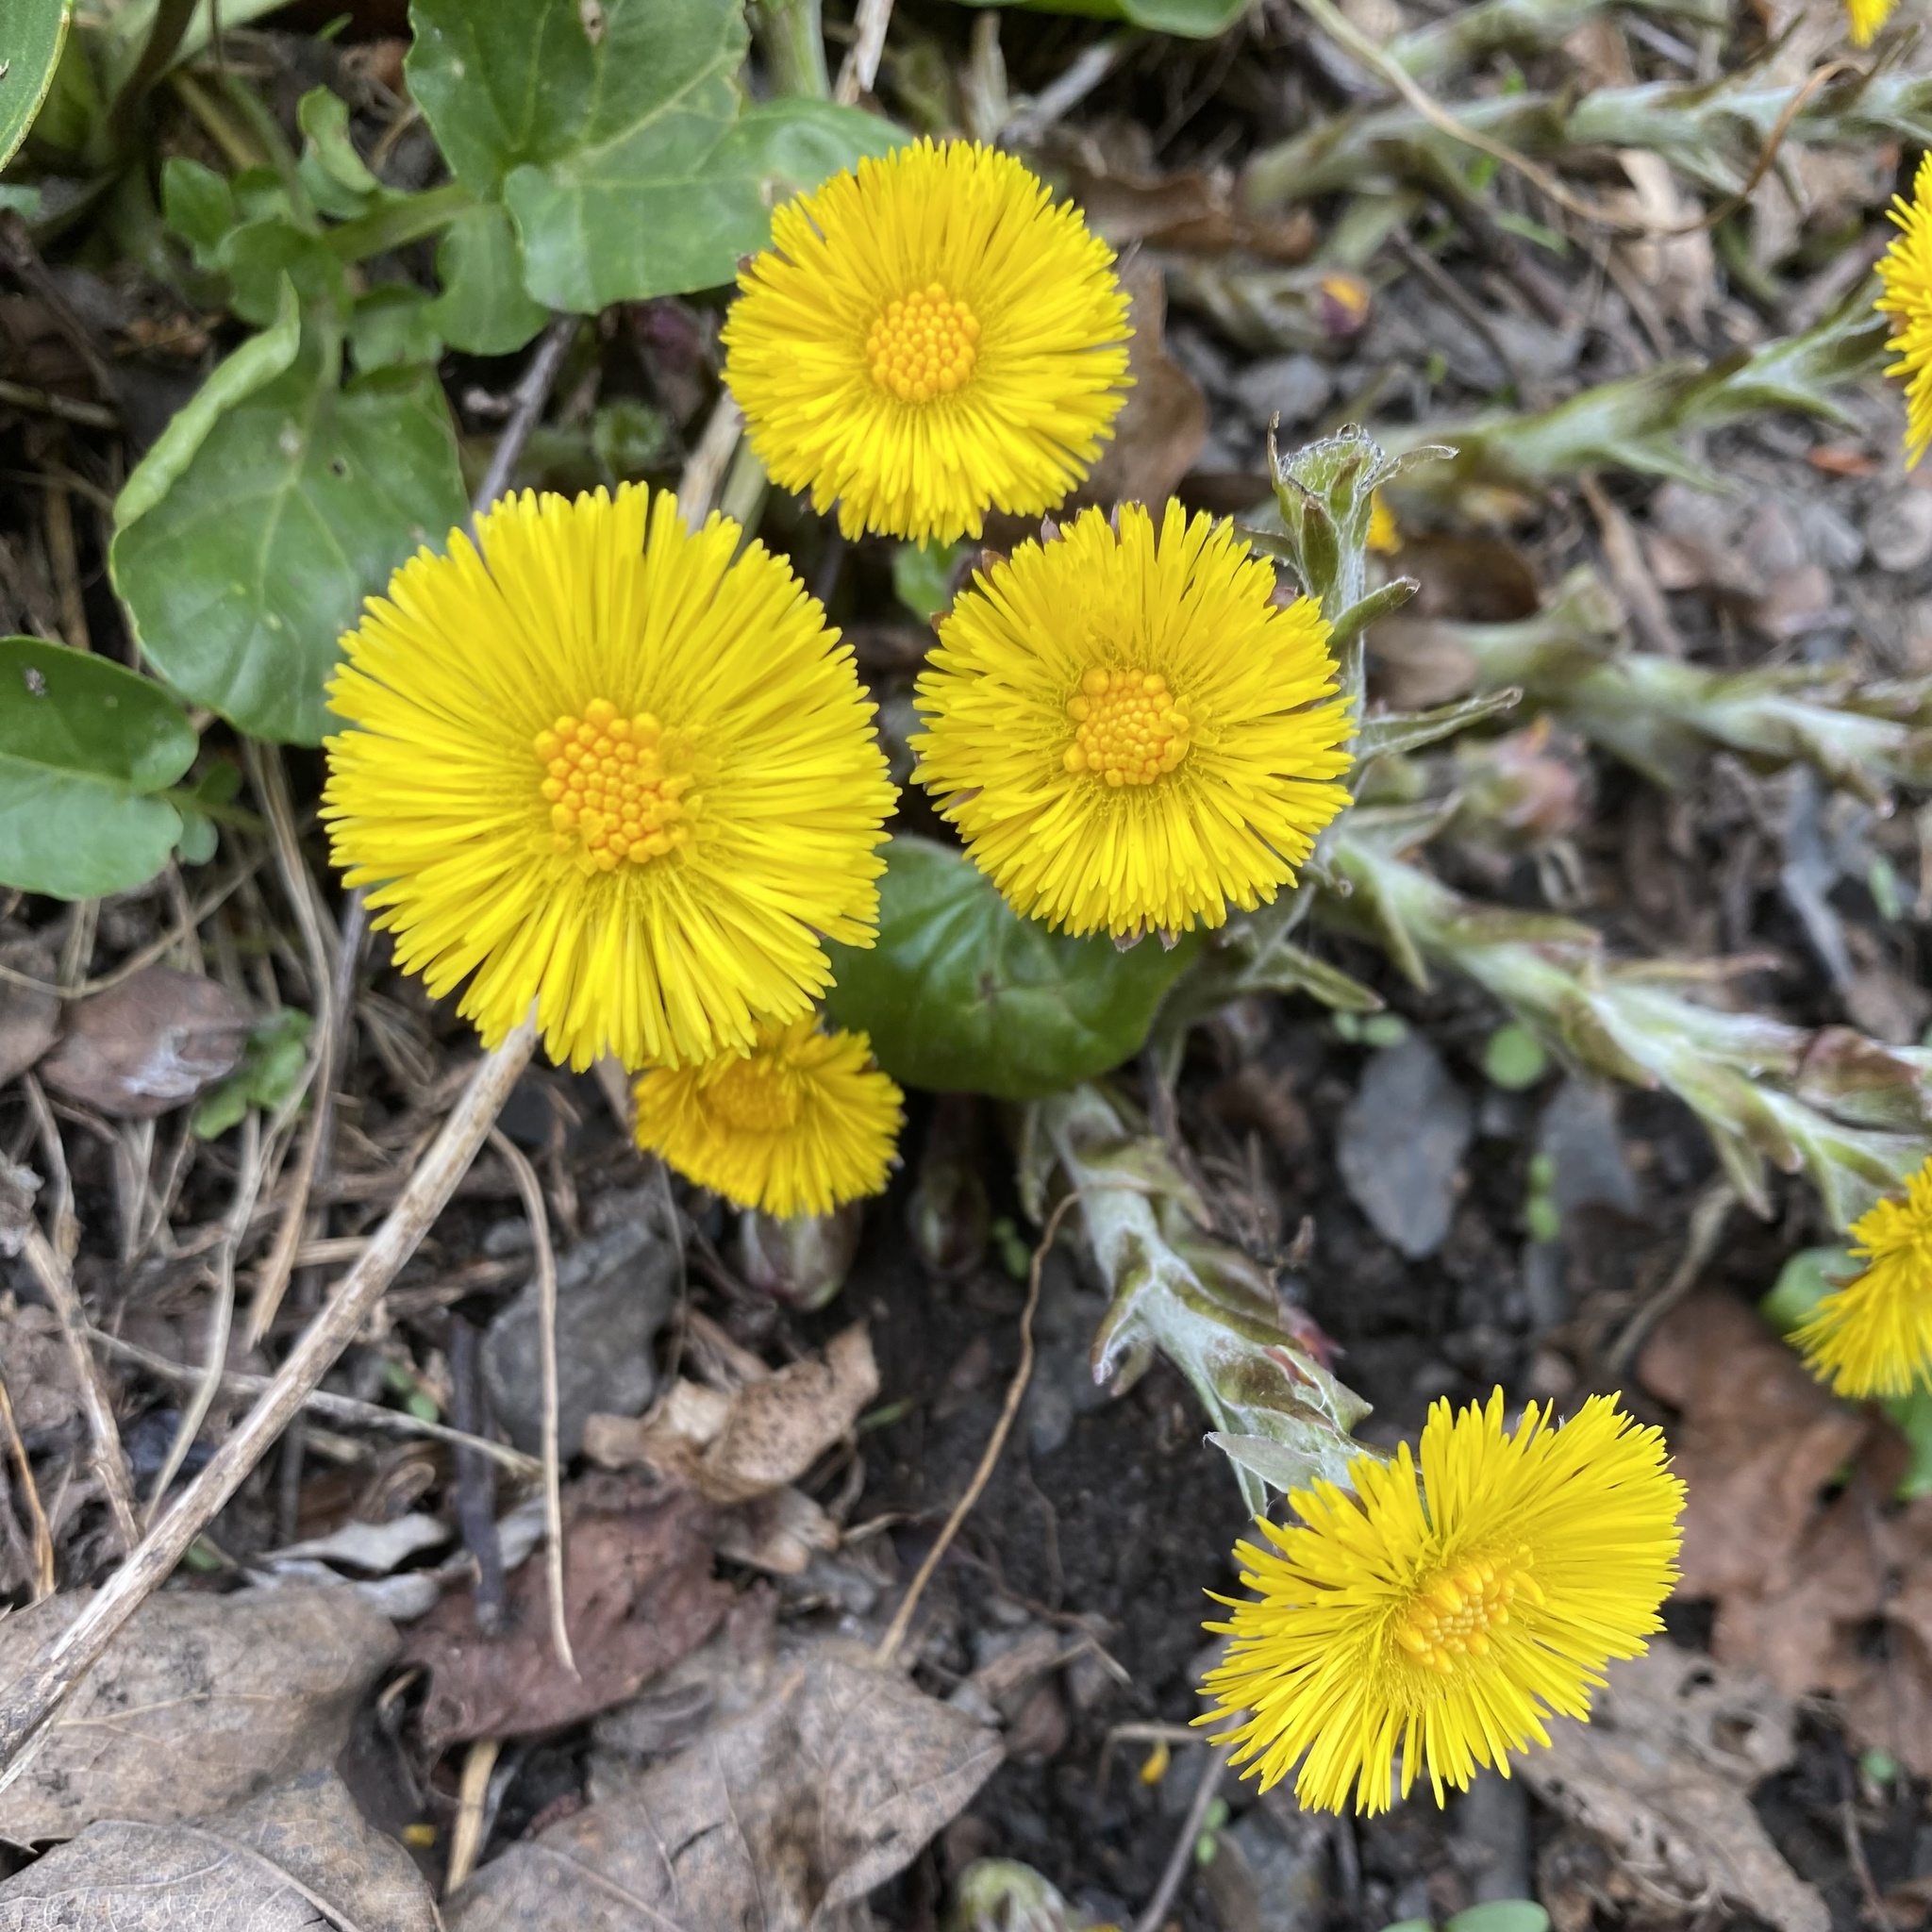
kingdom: Plantae
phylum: Tracheophyta
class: Magnoliopsida
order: Asterales
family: Asteraceae
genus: Tussilago
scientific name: Tussilago farfara
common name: Coltsfoot
